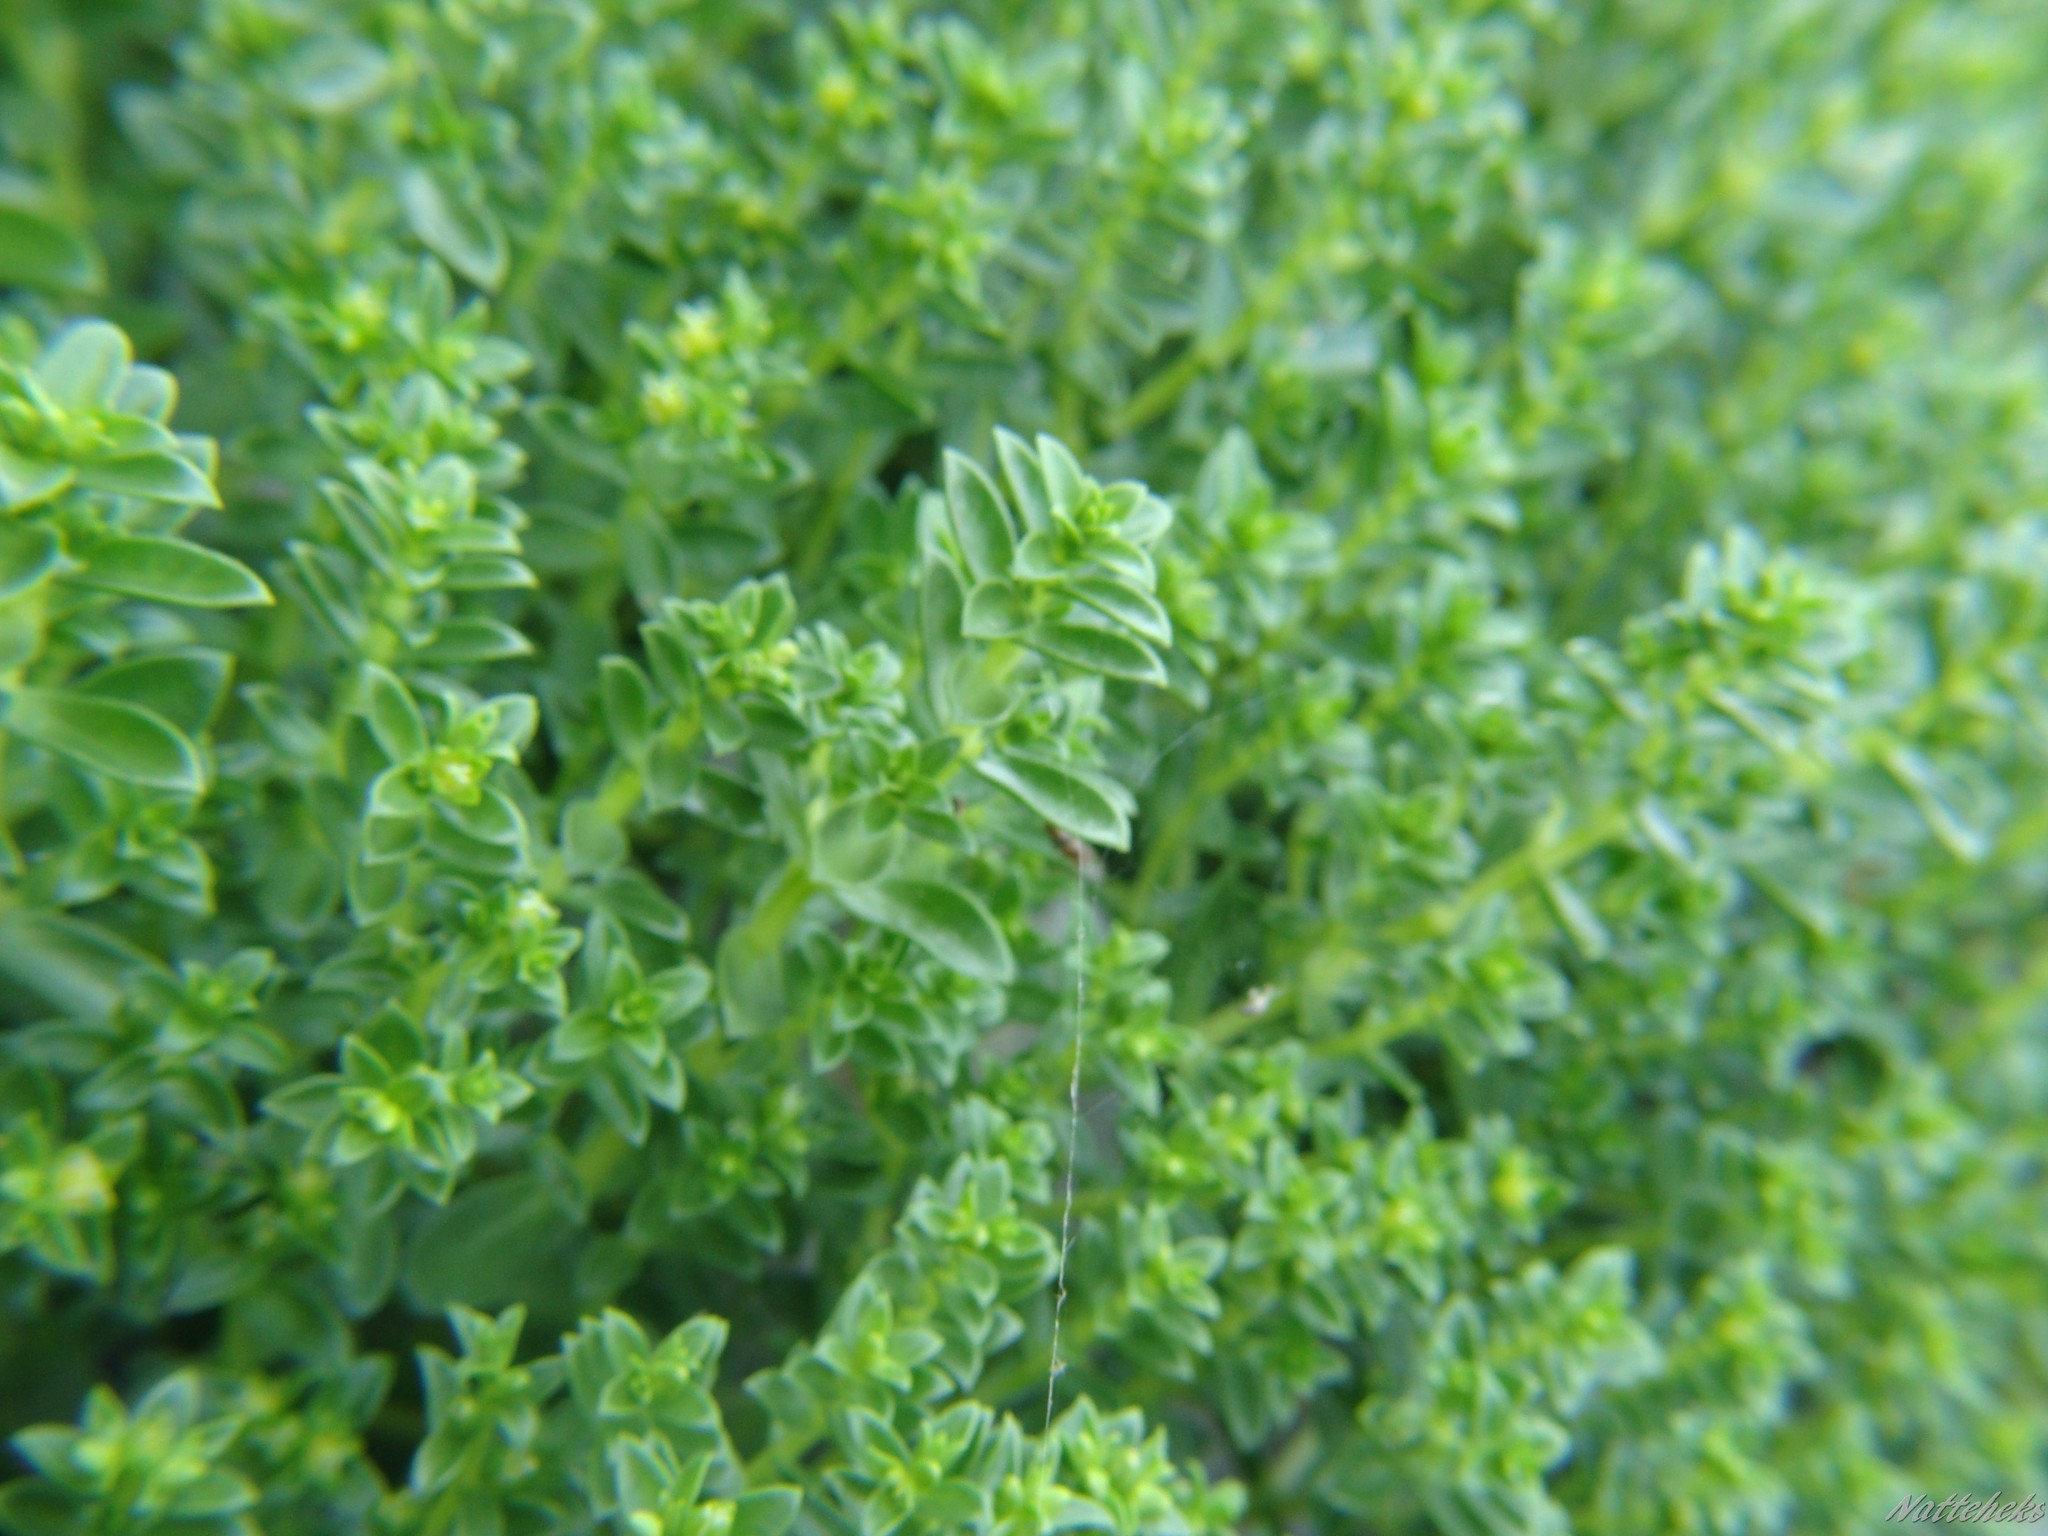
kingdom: Plantae
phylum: Tracheophyta
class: Magnoliopsida
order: Caryophyllales
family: Caryophyllaceae
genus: Honckenya
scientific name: Honckenya peploides
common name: Sea sandwort
